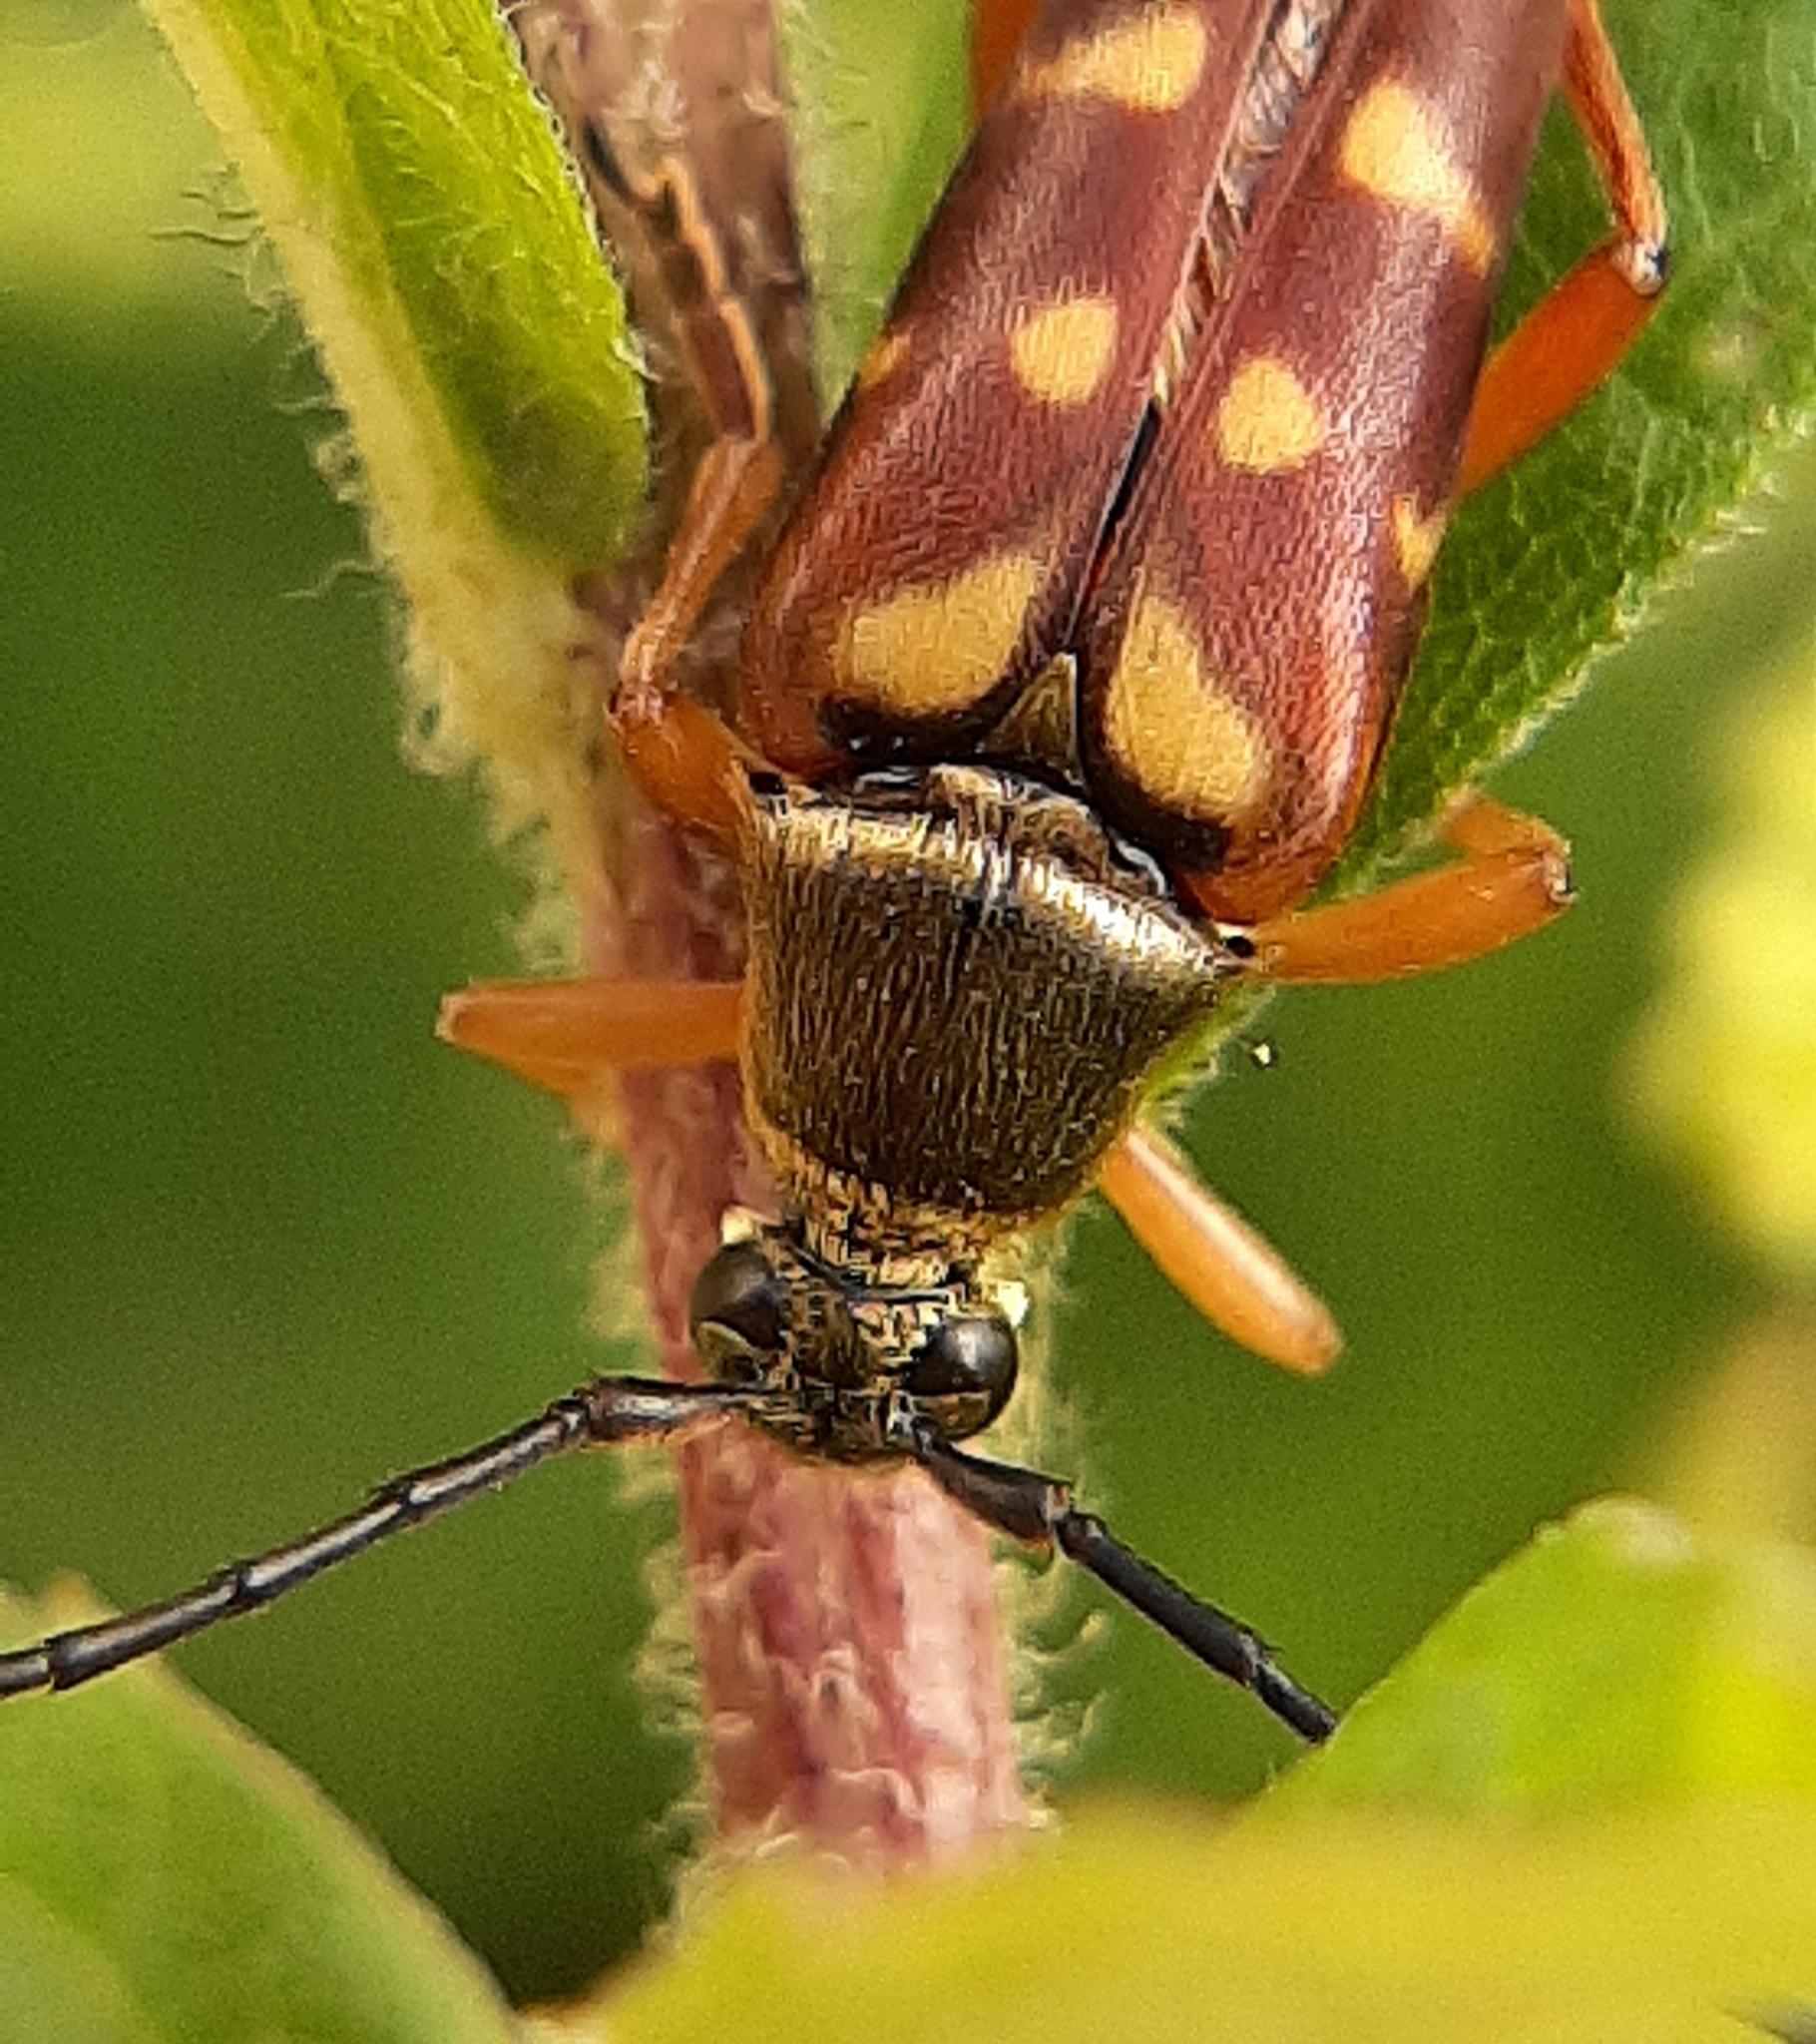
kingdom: Animalia
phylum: Arthropoda
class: Insecta
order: Coleoptera
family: Cerambycidae
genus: Typocerus
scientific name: Typocerus acuticauda
